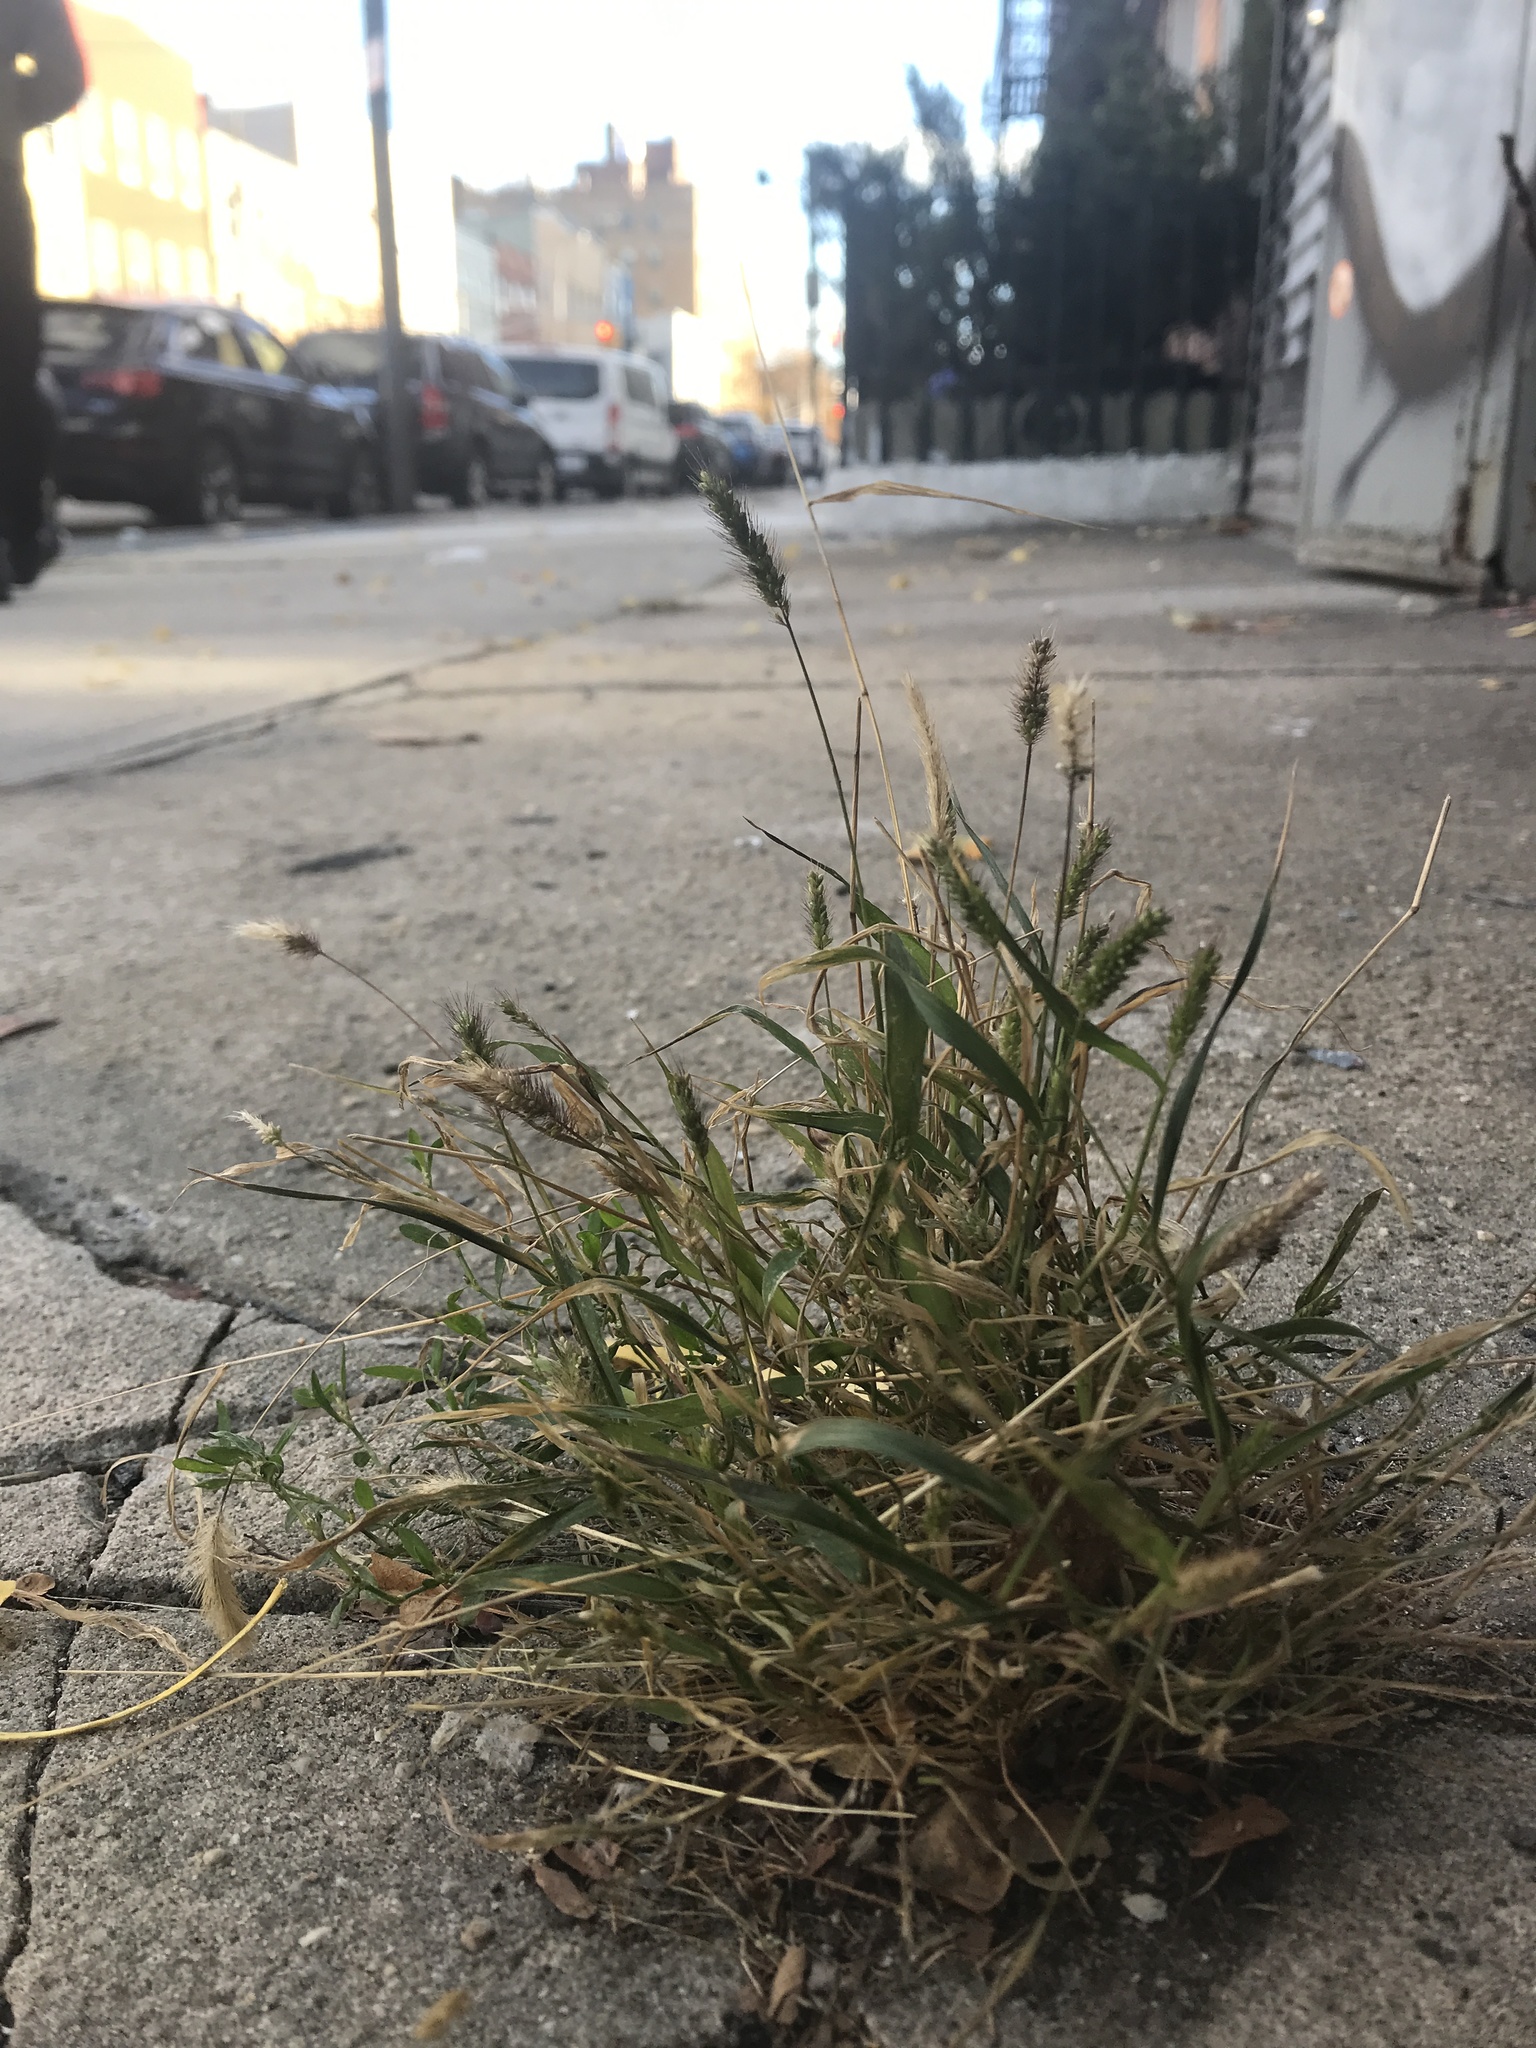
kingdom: Plantae
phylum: Tracheophyta
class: Liliopsida
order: Poales
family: Poaceae
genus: Setaria
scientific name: Setaria viridis
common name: Green bristlegrass
